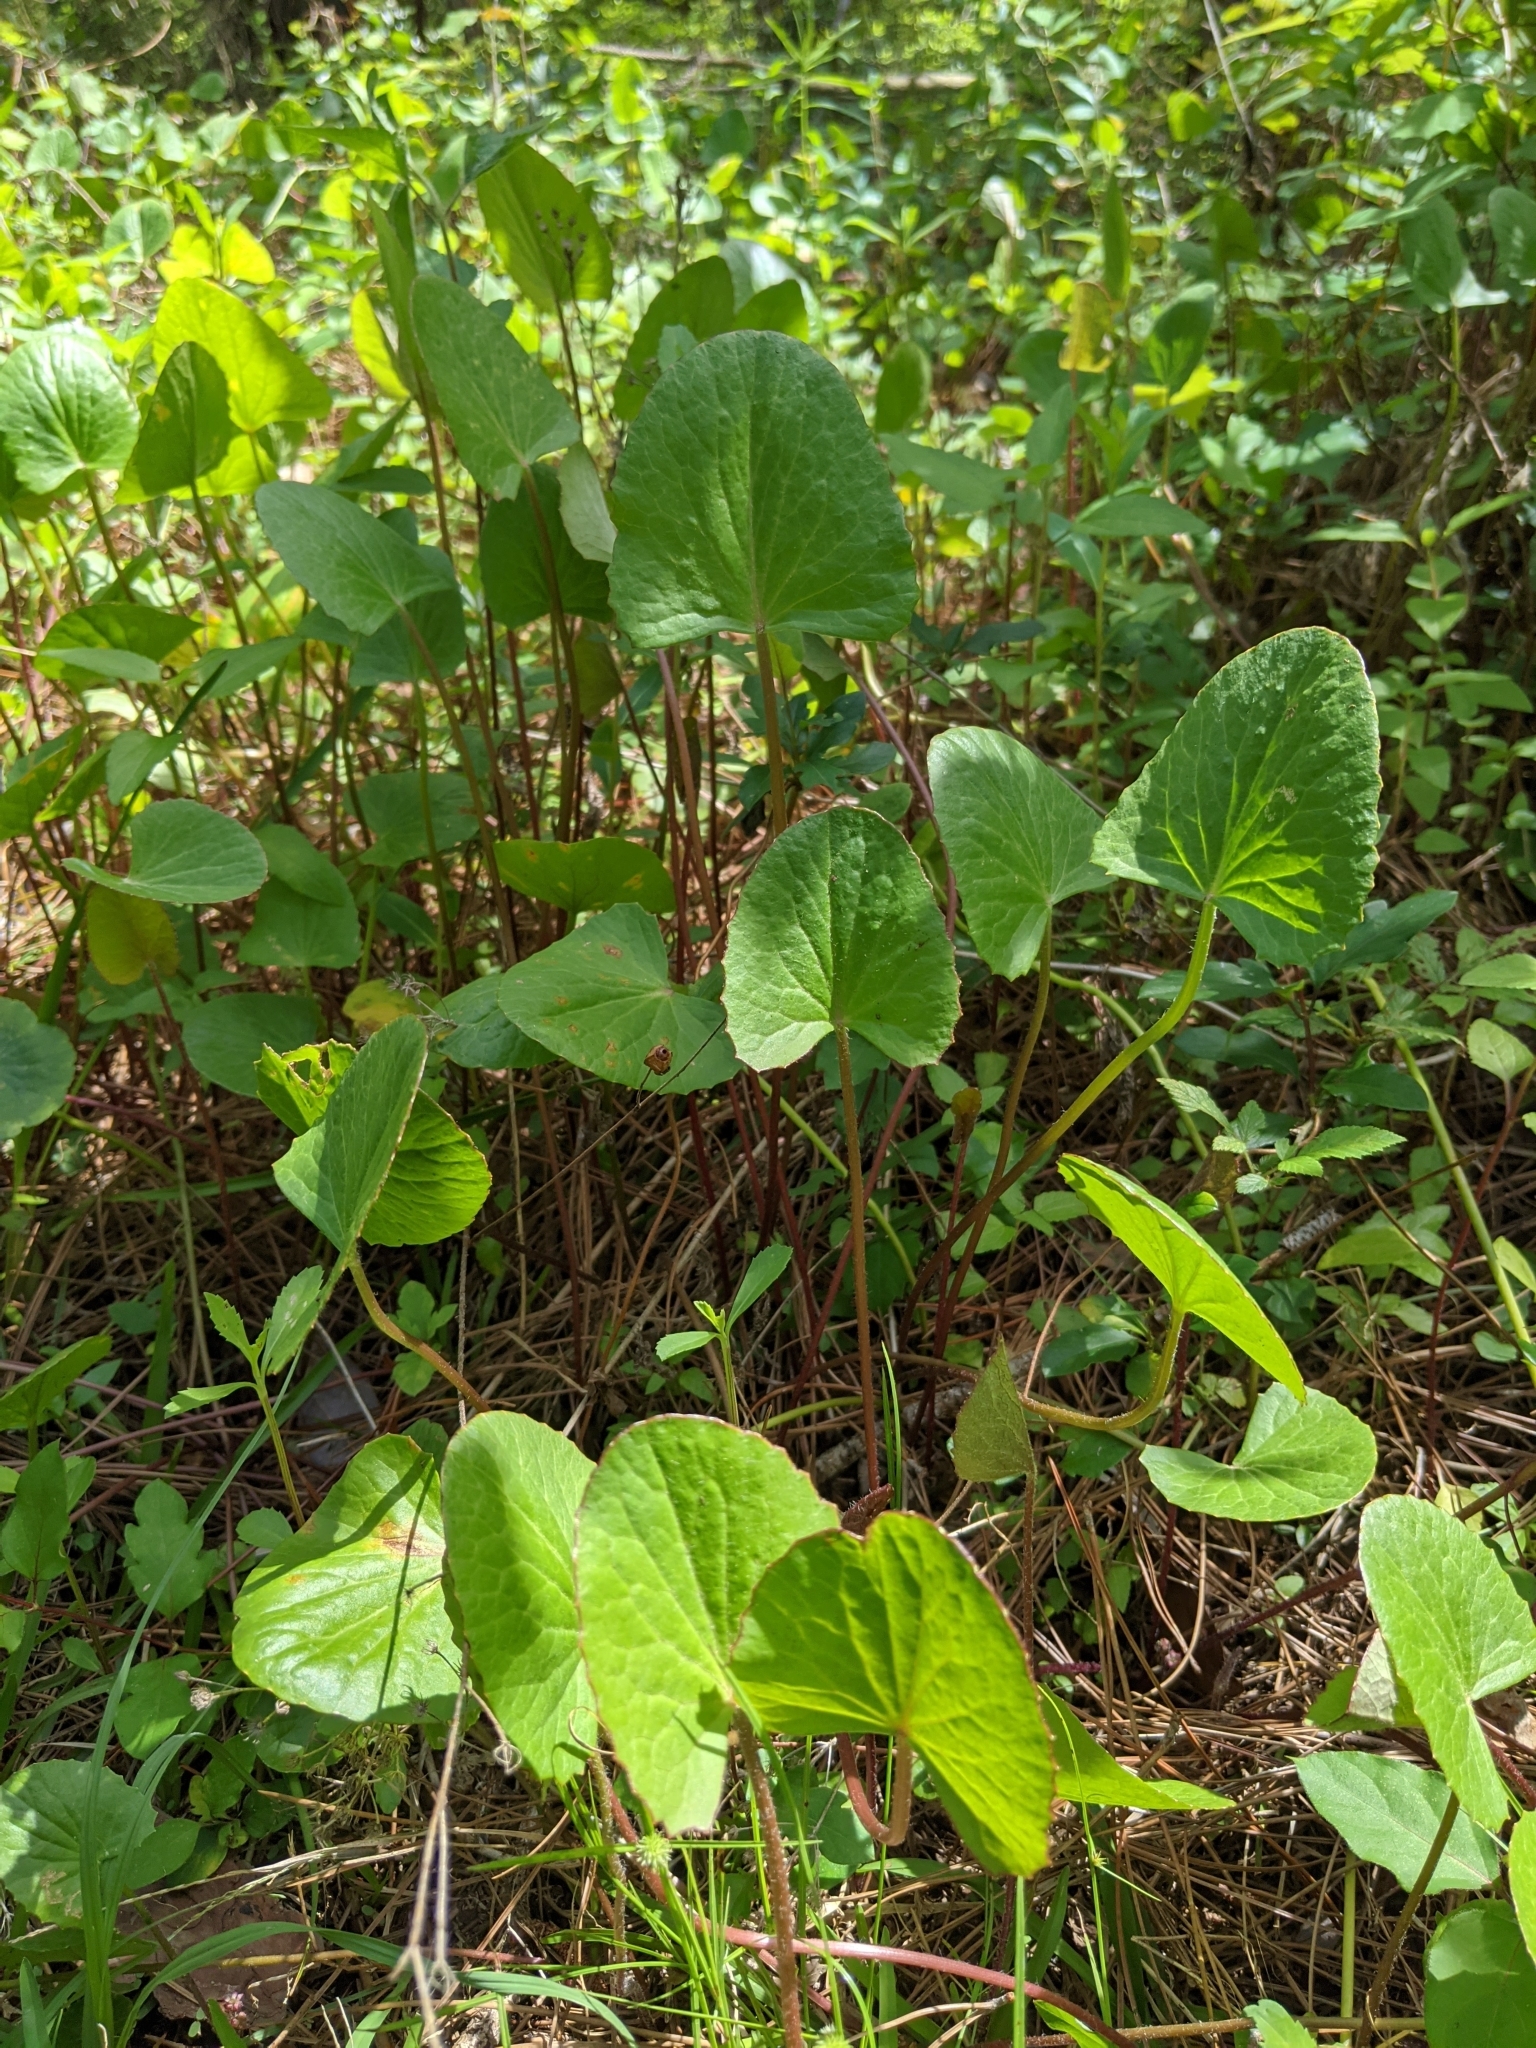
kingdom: Plantae
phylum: Tracheophyta
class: Magnoliopsida
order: Apiales
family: Apiaceae
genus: Centella
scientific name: Centella erecta
